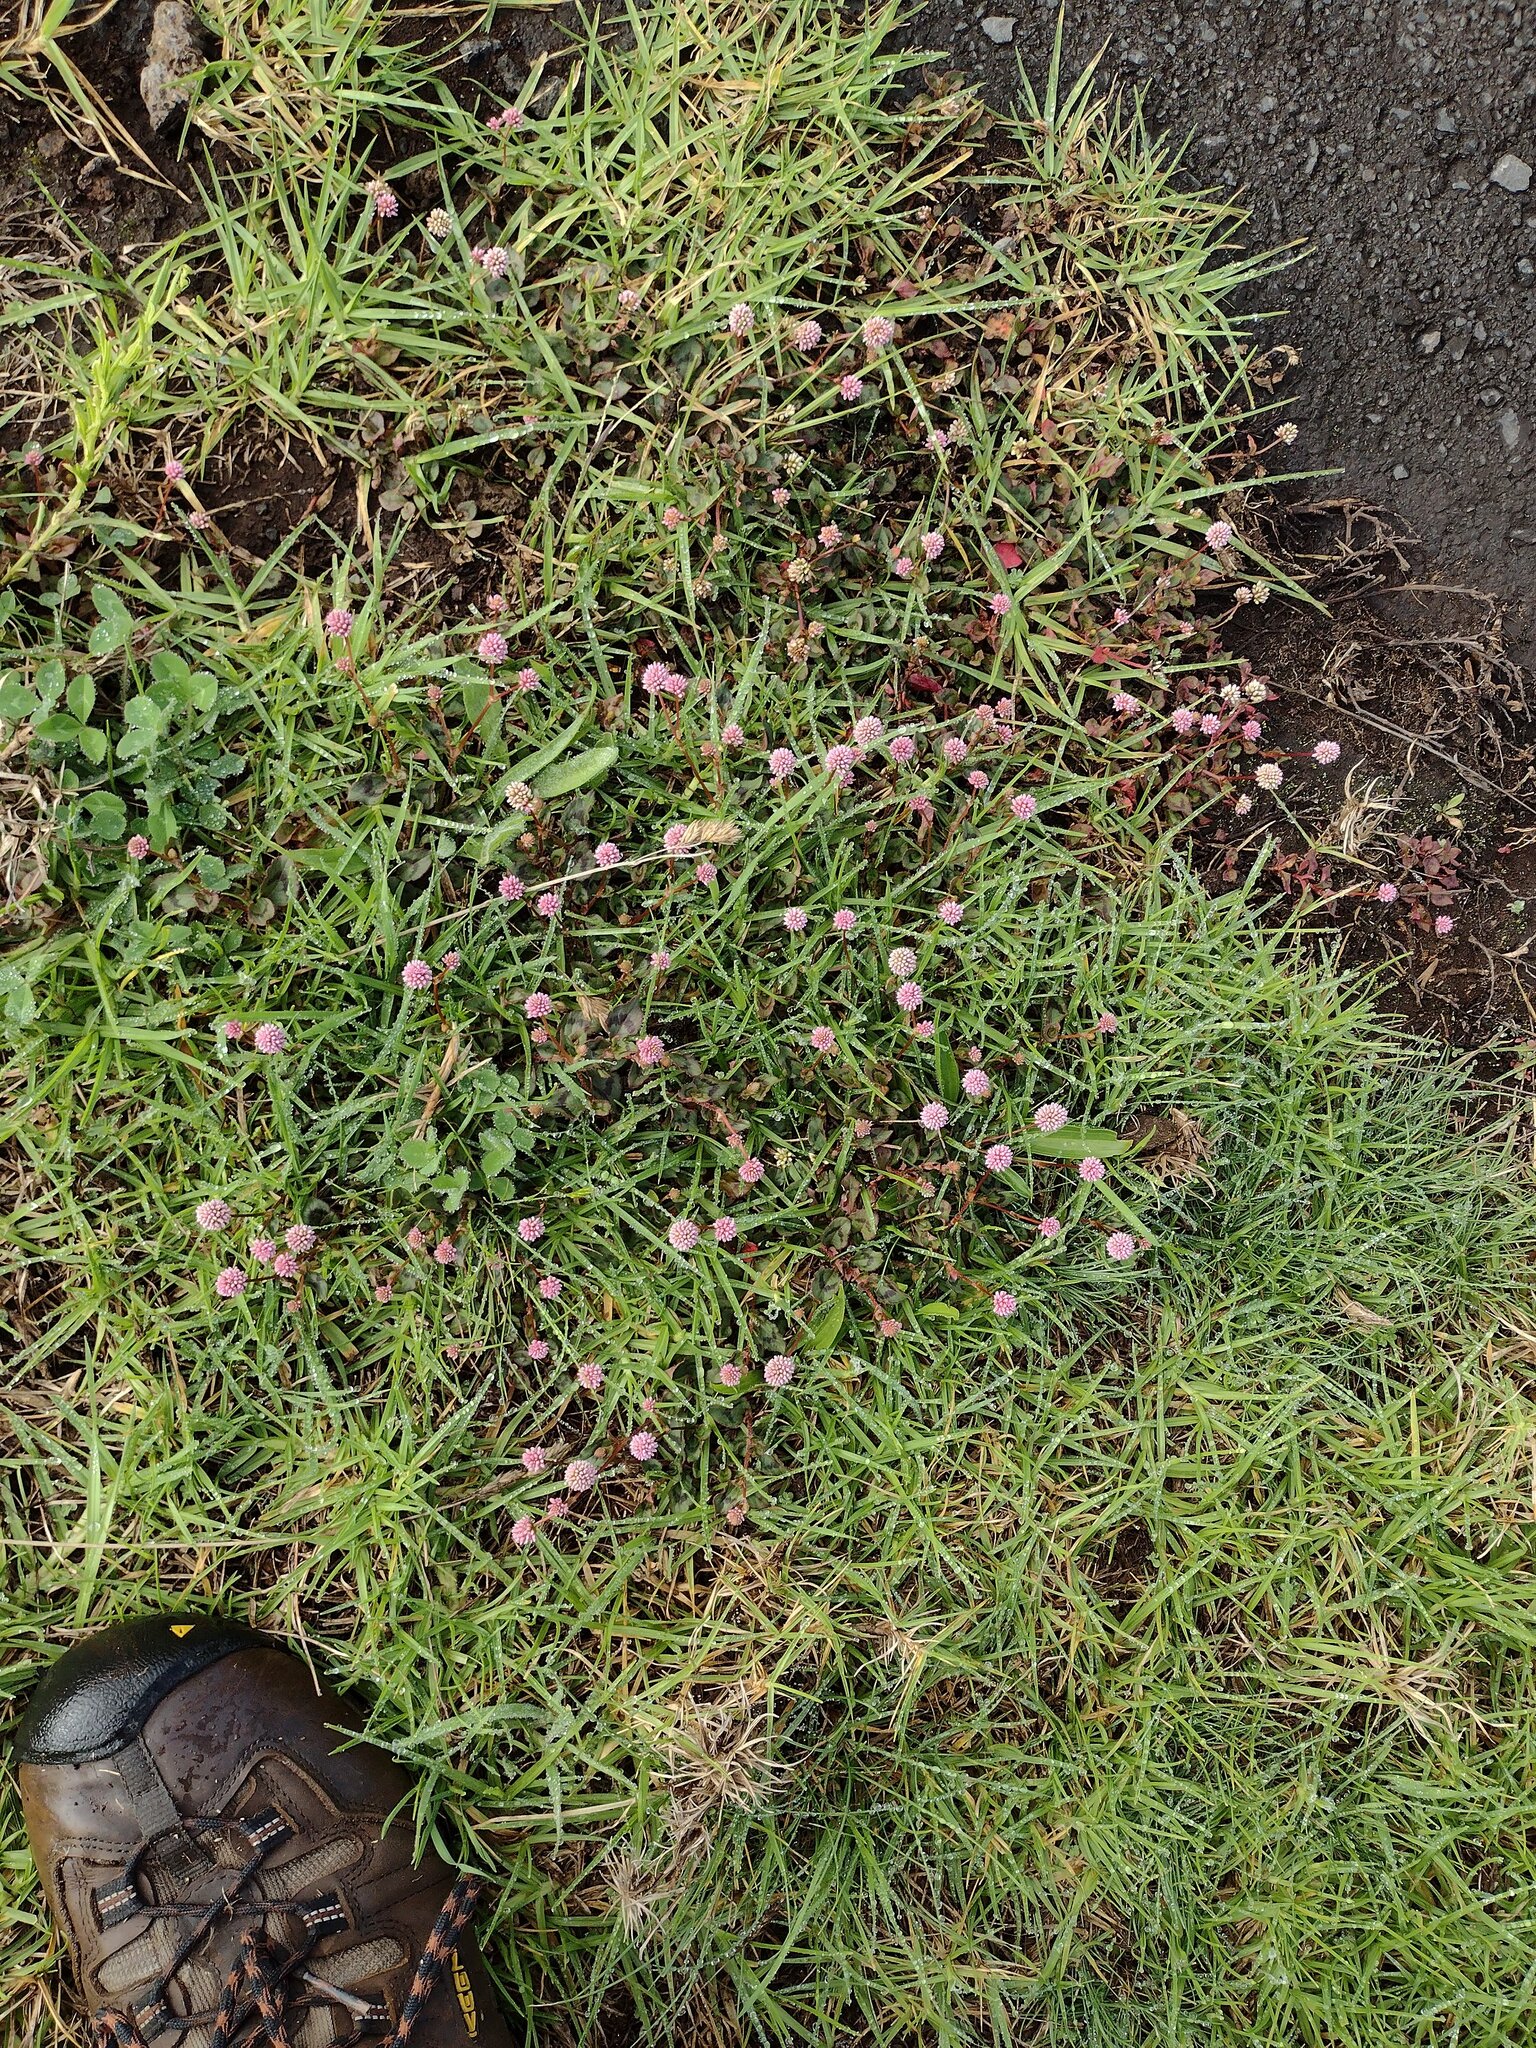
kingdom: Plantae
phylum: Tracheophyta
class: Magnoliopsida
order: Caryophyllales
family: Polygonaceae
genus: Persicaria
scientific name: Persicaria capitata
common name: Pinkhead smartweed
